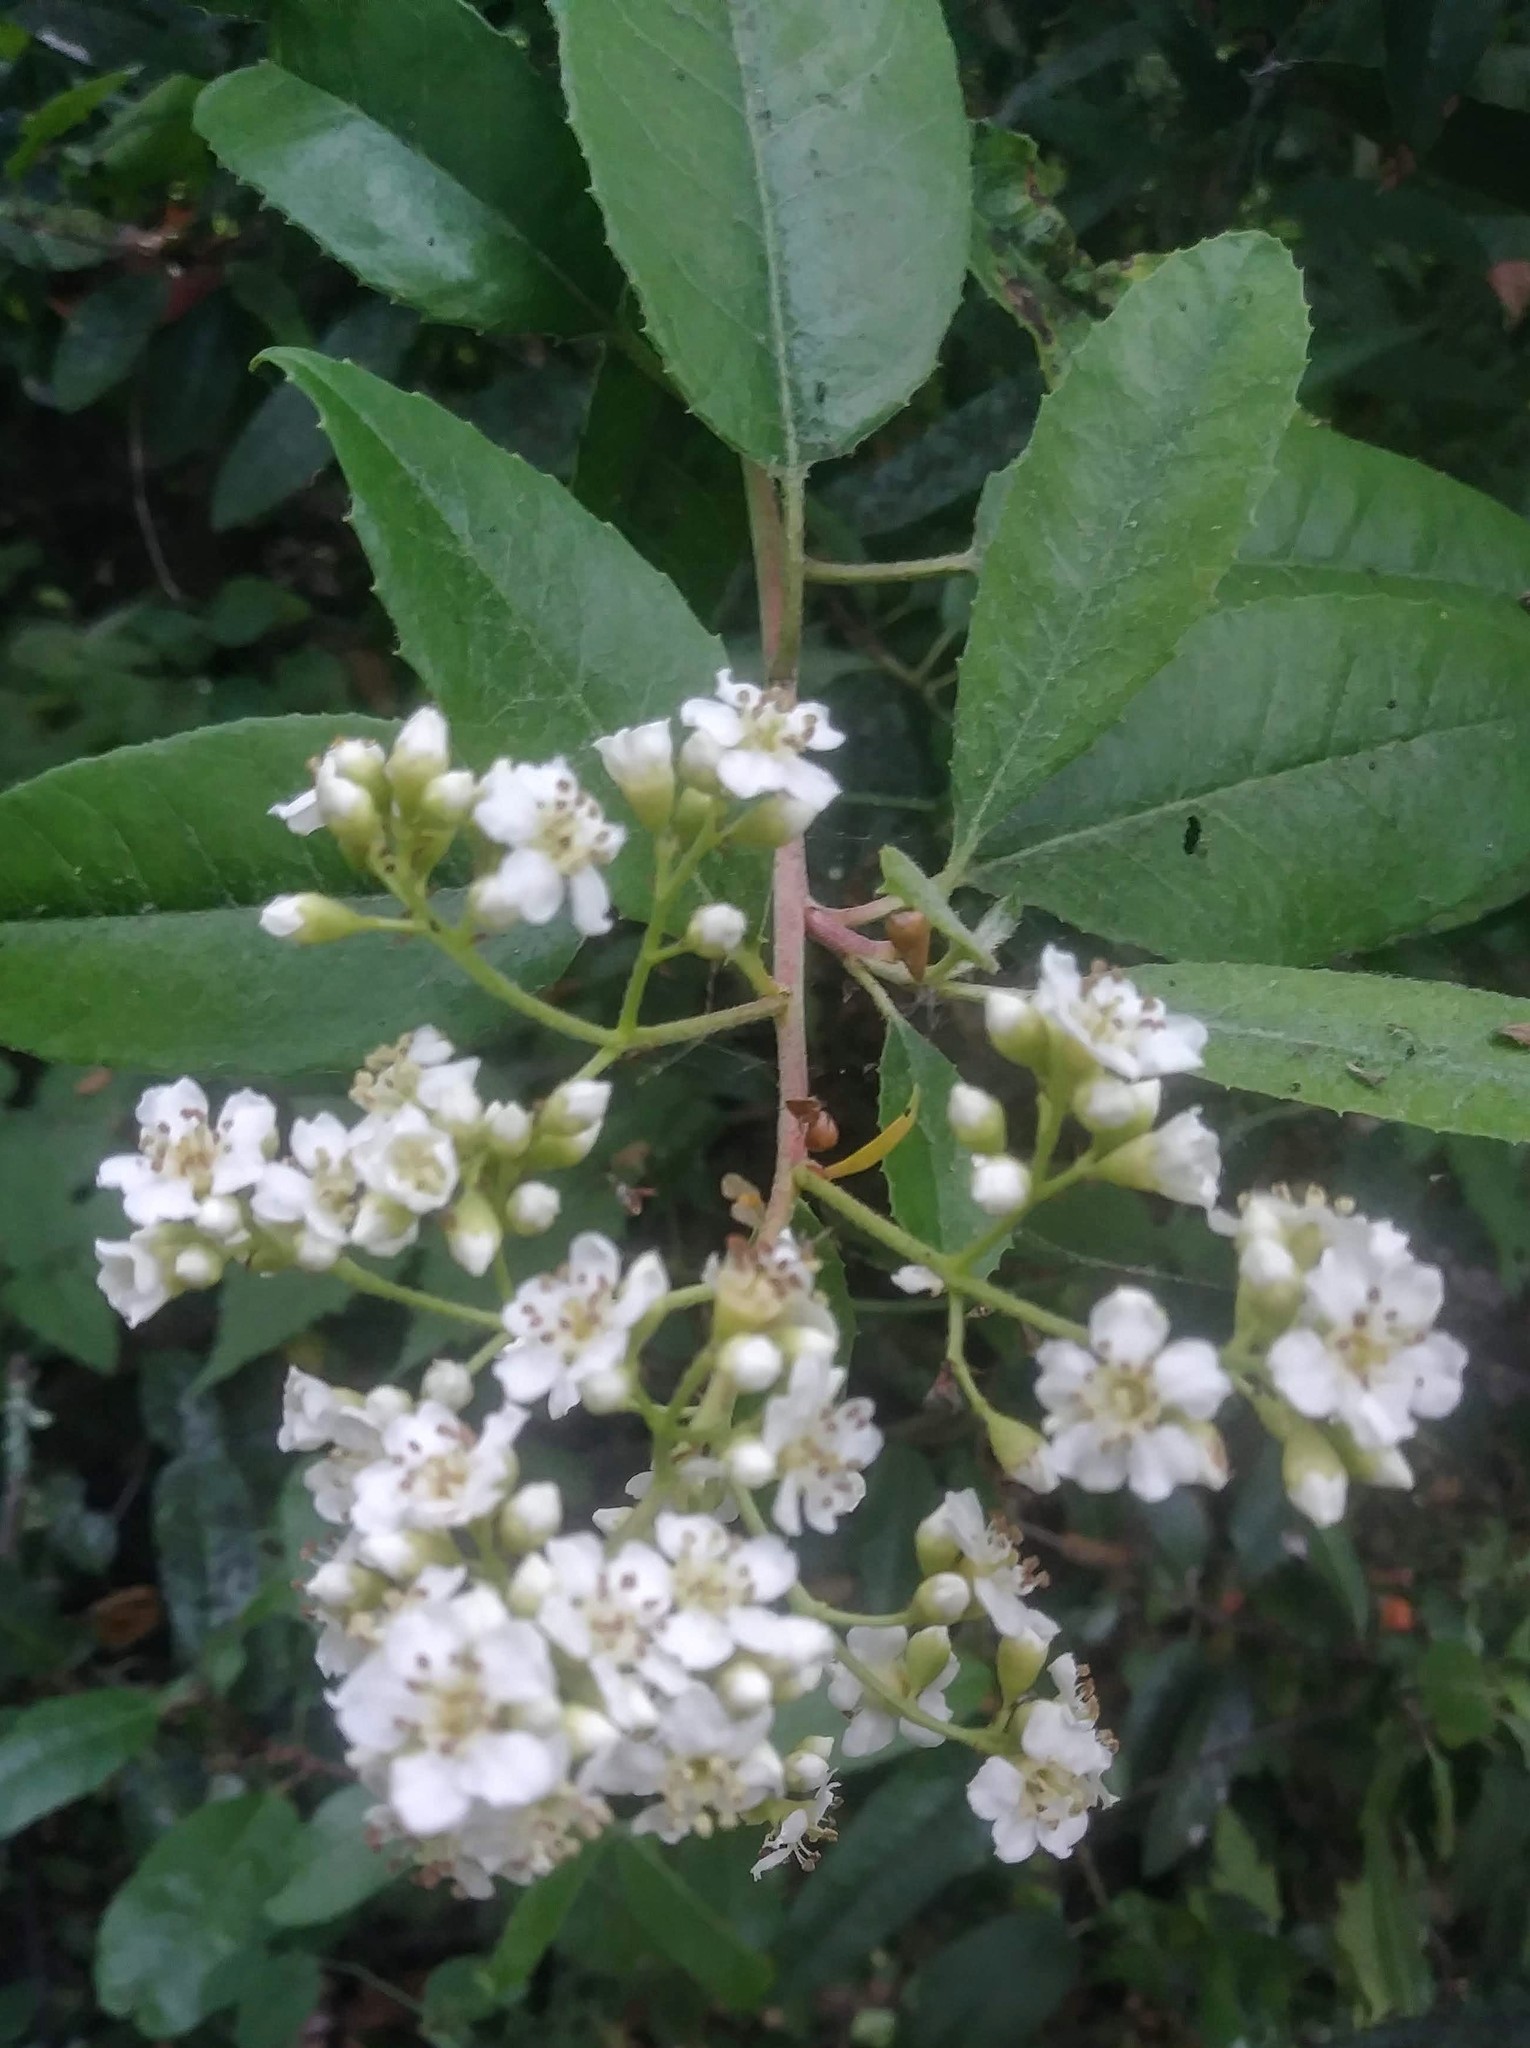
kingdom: Plantae
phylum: Tracheophyta
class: Magnoliopsida
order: Rosales
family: Rosaceae
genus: Heteromeles
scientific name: Heteromeles arbutifolia
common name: California-holly
